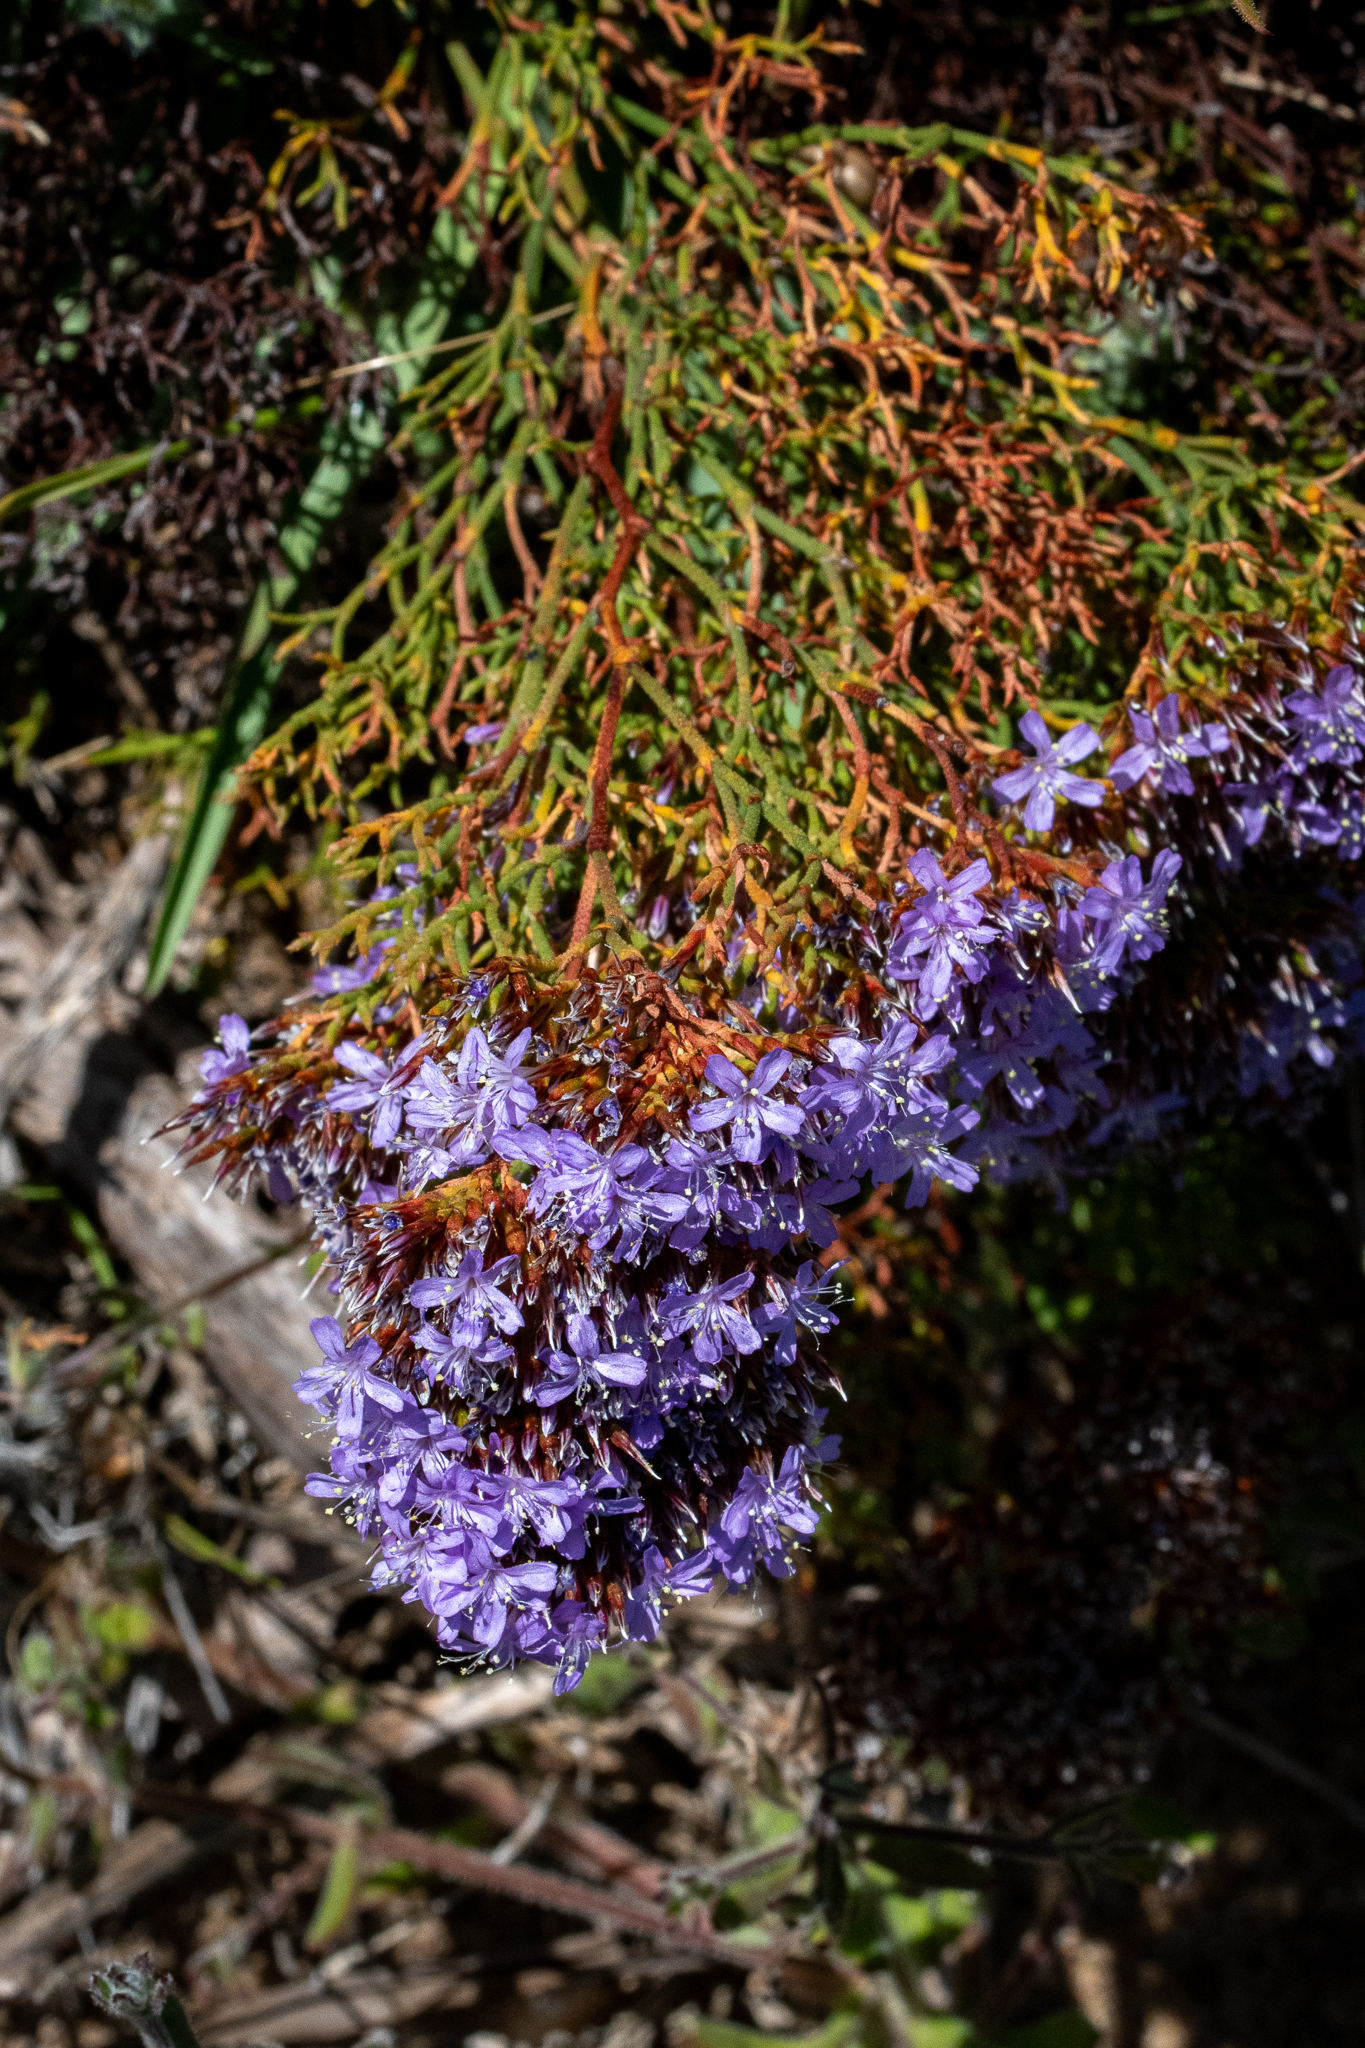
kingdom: Plantae
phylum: Tracheophyta
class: Magnoliopsida
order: Caryophyllales
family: Plumbaginaceae
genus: Limonium
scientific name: Limonium scabrum
